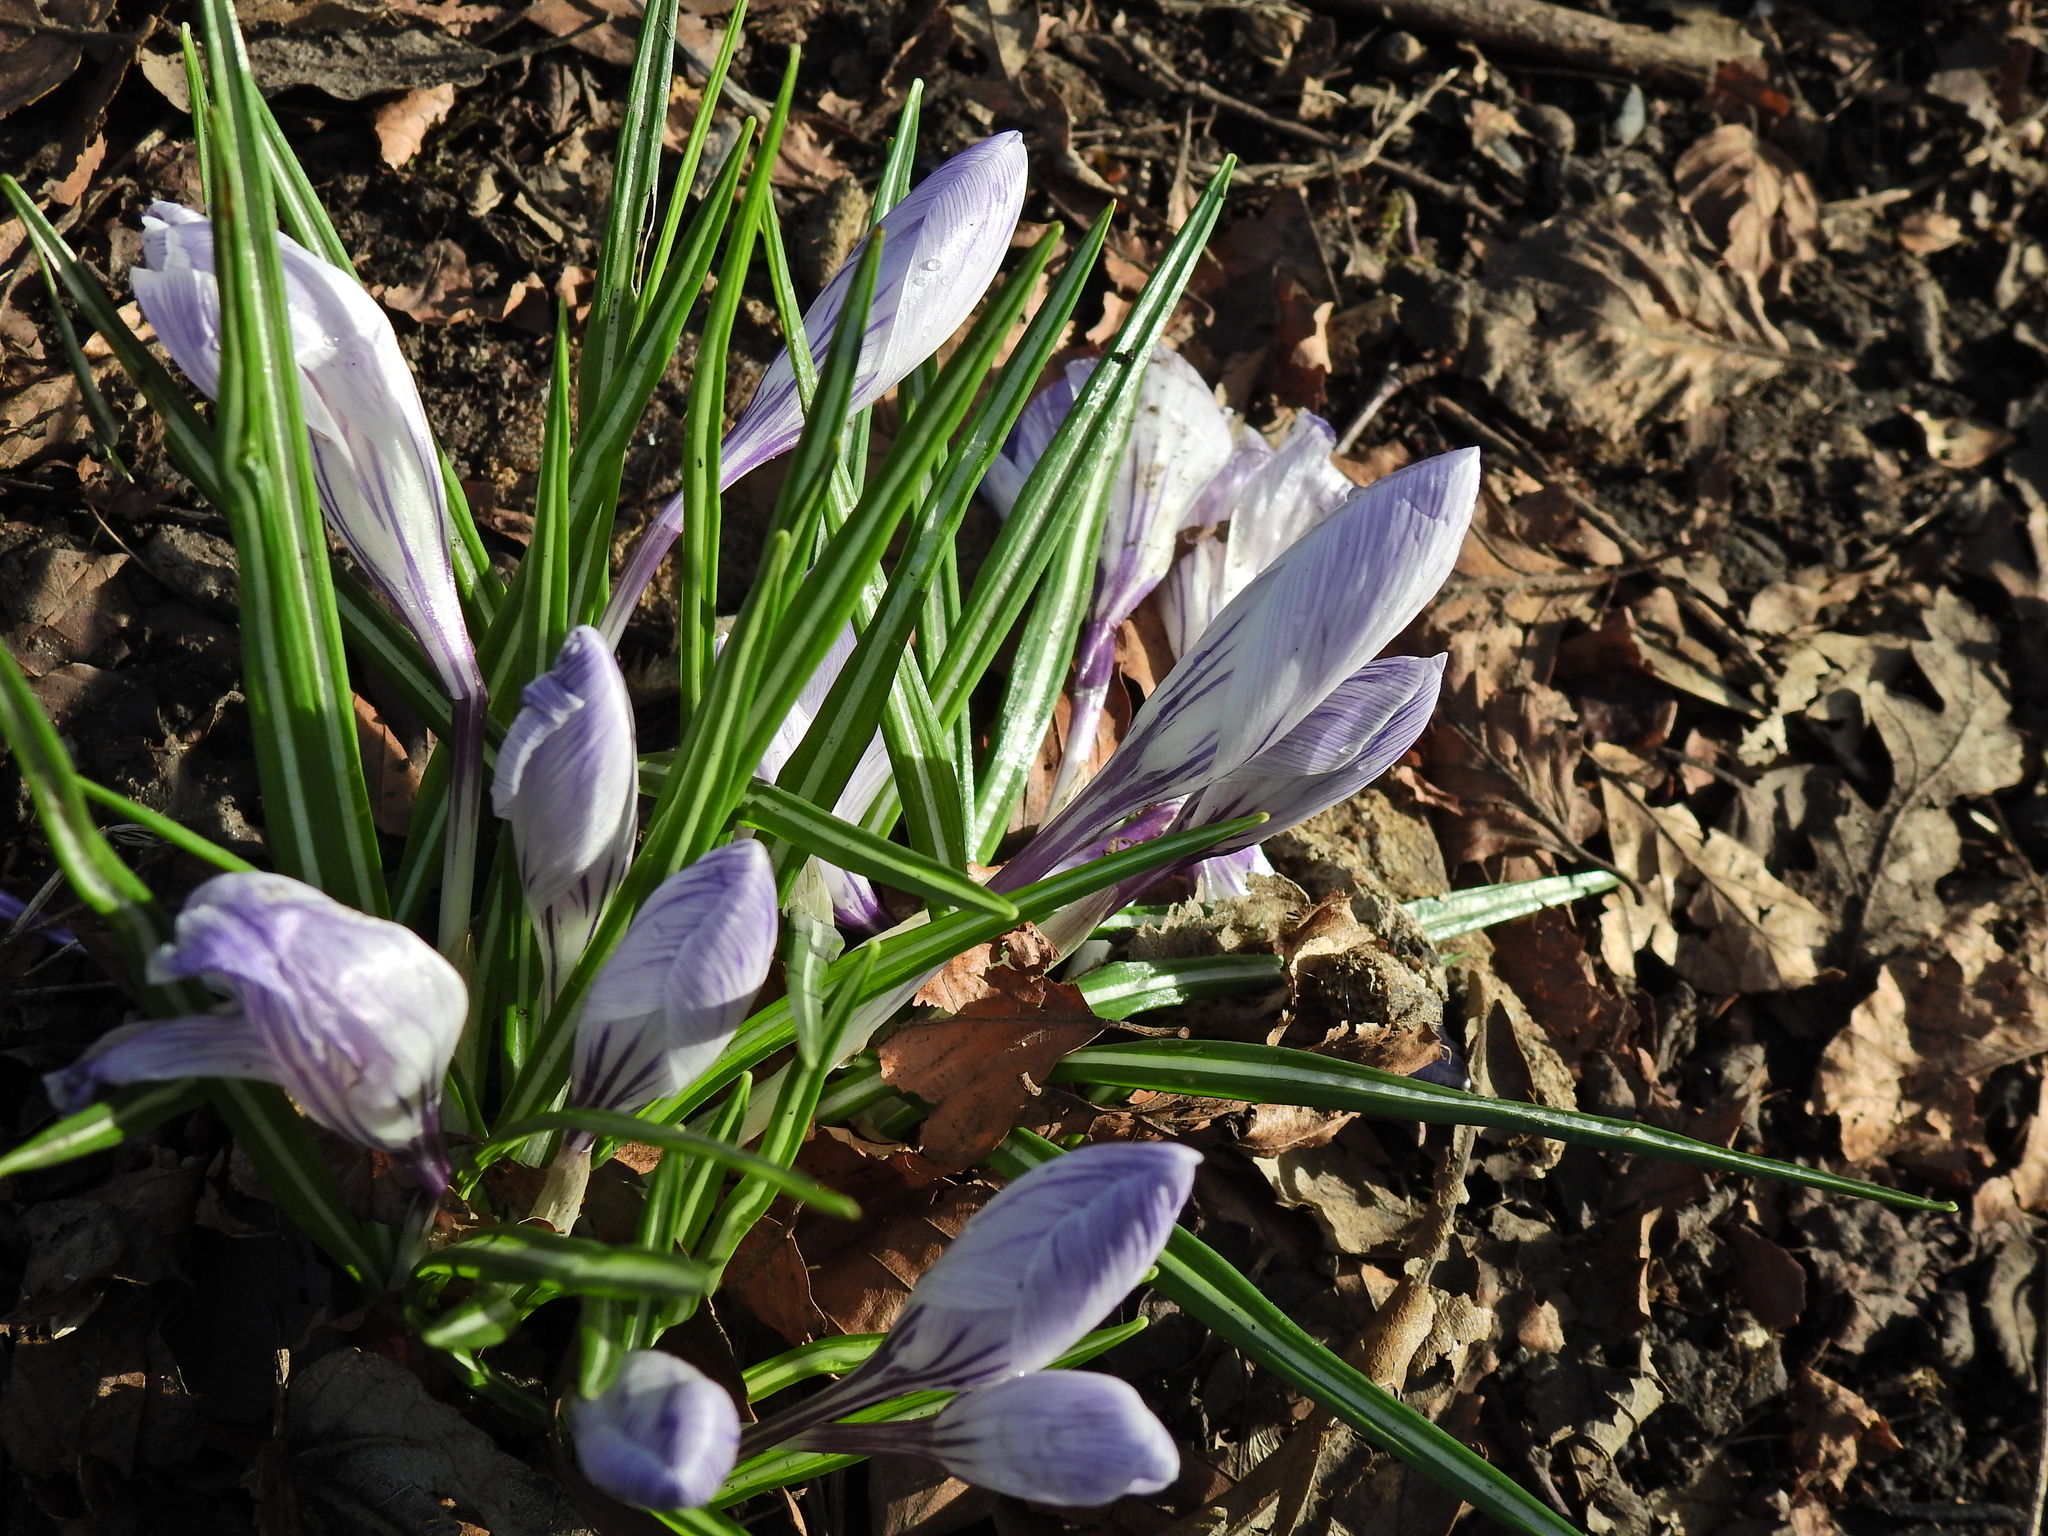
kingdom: Plantae
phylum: Tracheophyta
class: Liliopsida
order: Asparagales
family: Iridaceae
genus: Crocus
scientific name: Crocus neapolitanus
